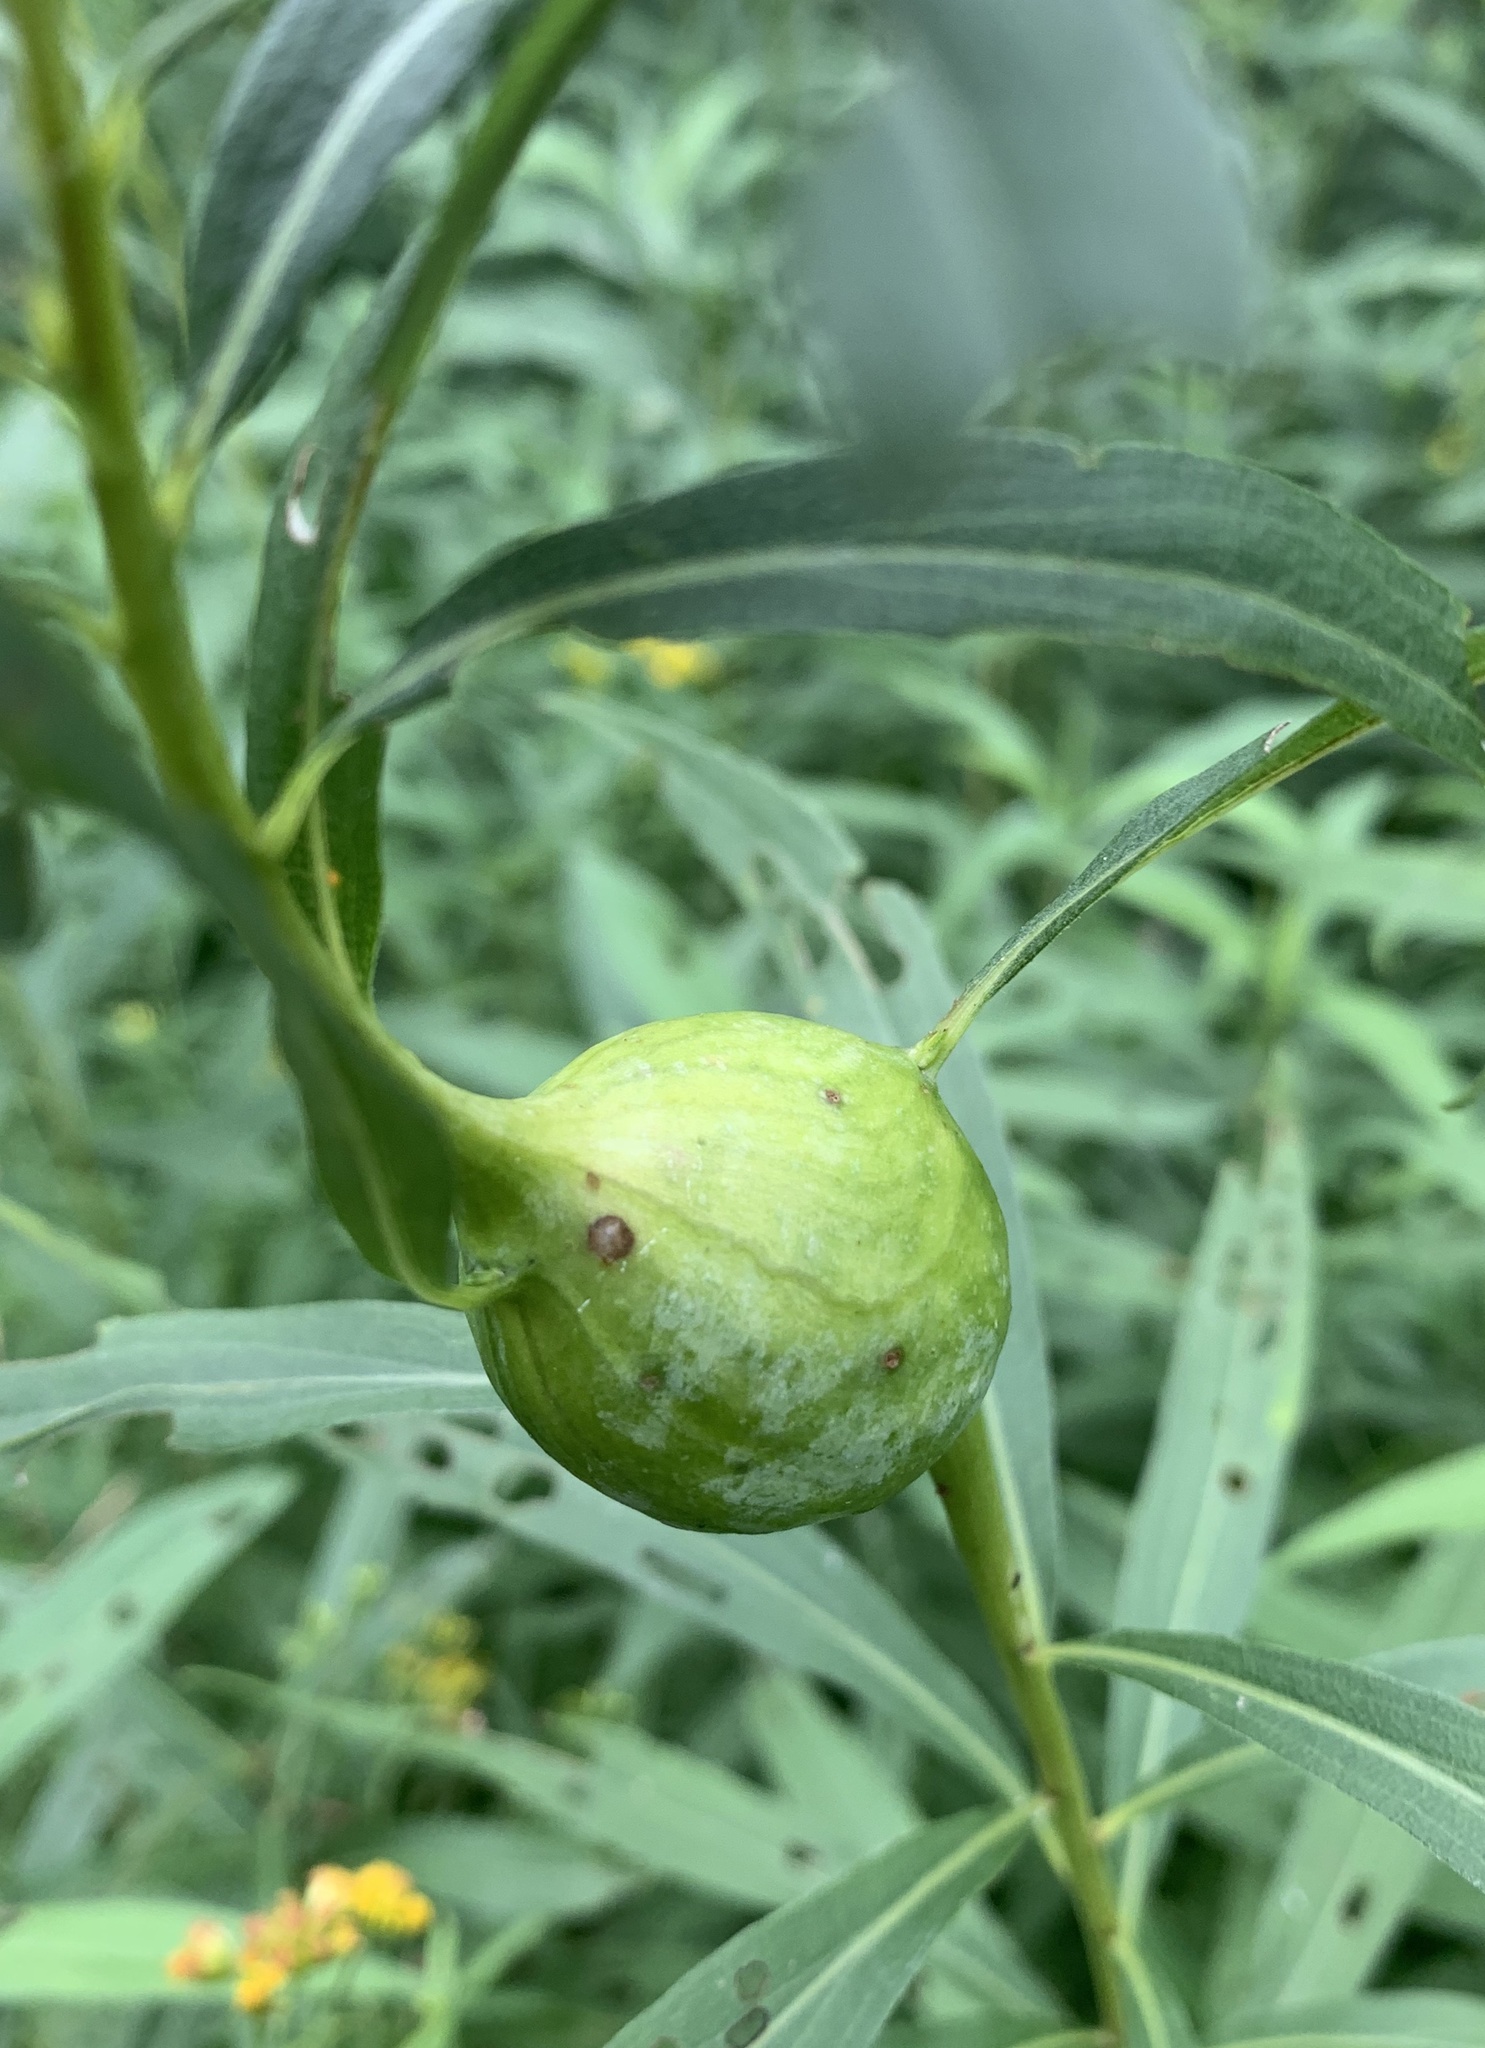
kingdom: Animalia
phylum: Arthropoda
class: Insecta
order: Diptera
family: Tephritidae
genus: Eurosta
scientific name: Eurosta solidaginis
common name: Goldenrod gall fly
